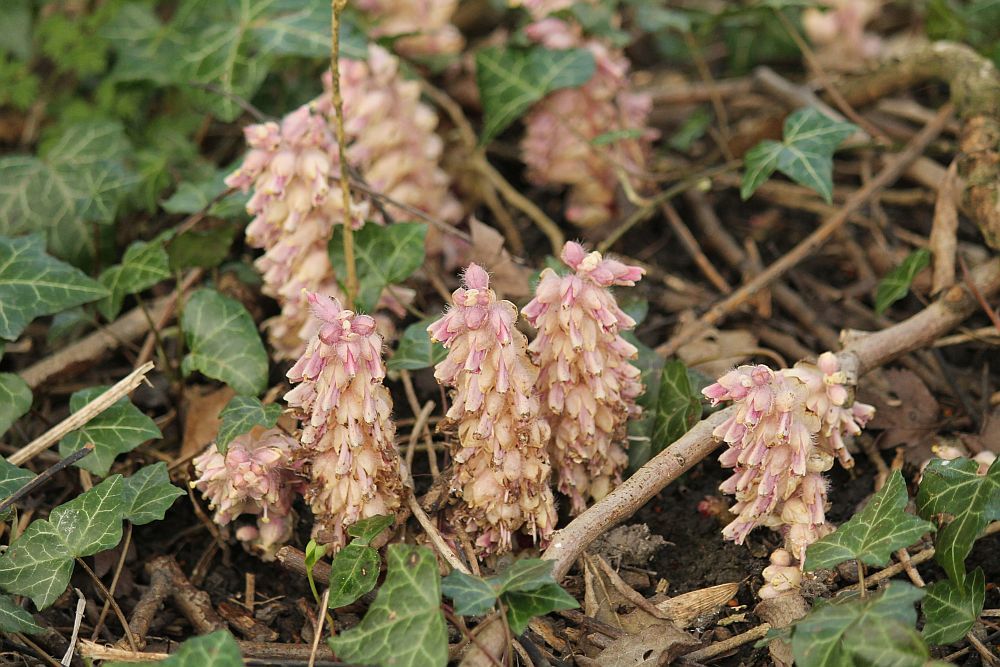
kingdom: Plantae
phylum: Tracheophyta
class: Magnoliopsida
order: Lamiales
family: Orobanchaceae
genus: Lathraea
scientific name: Lathraea squamaria
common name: Toothwort
